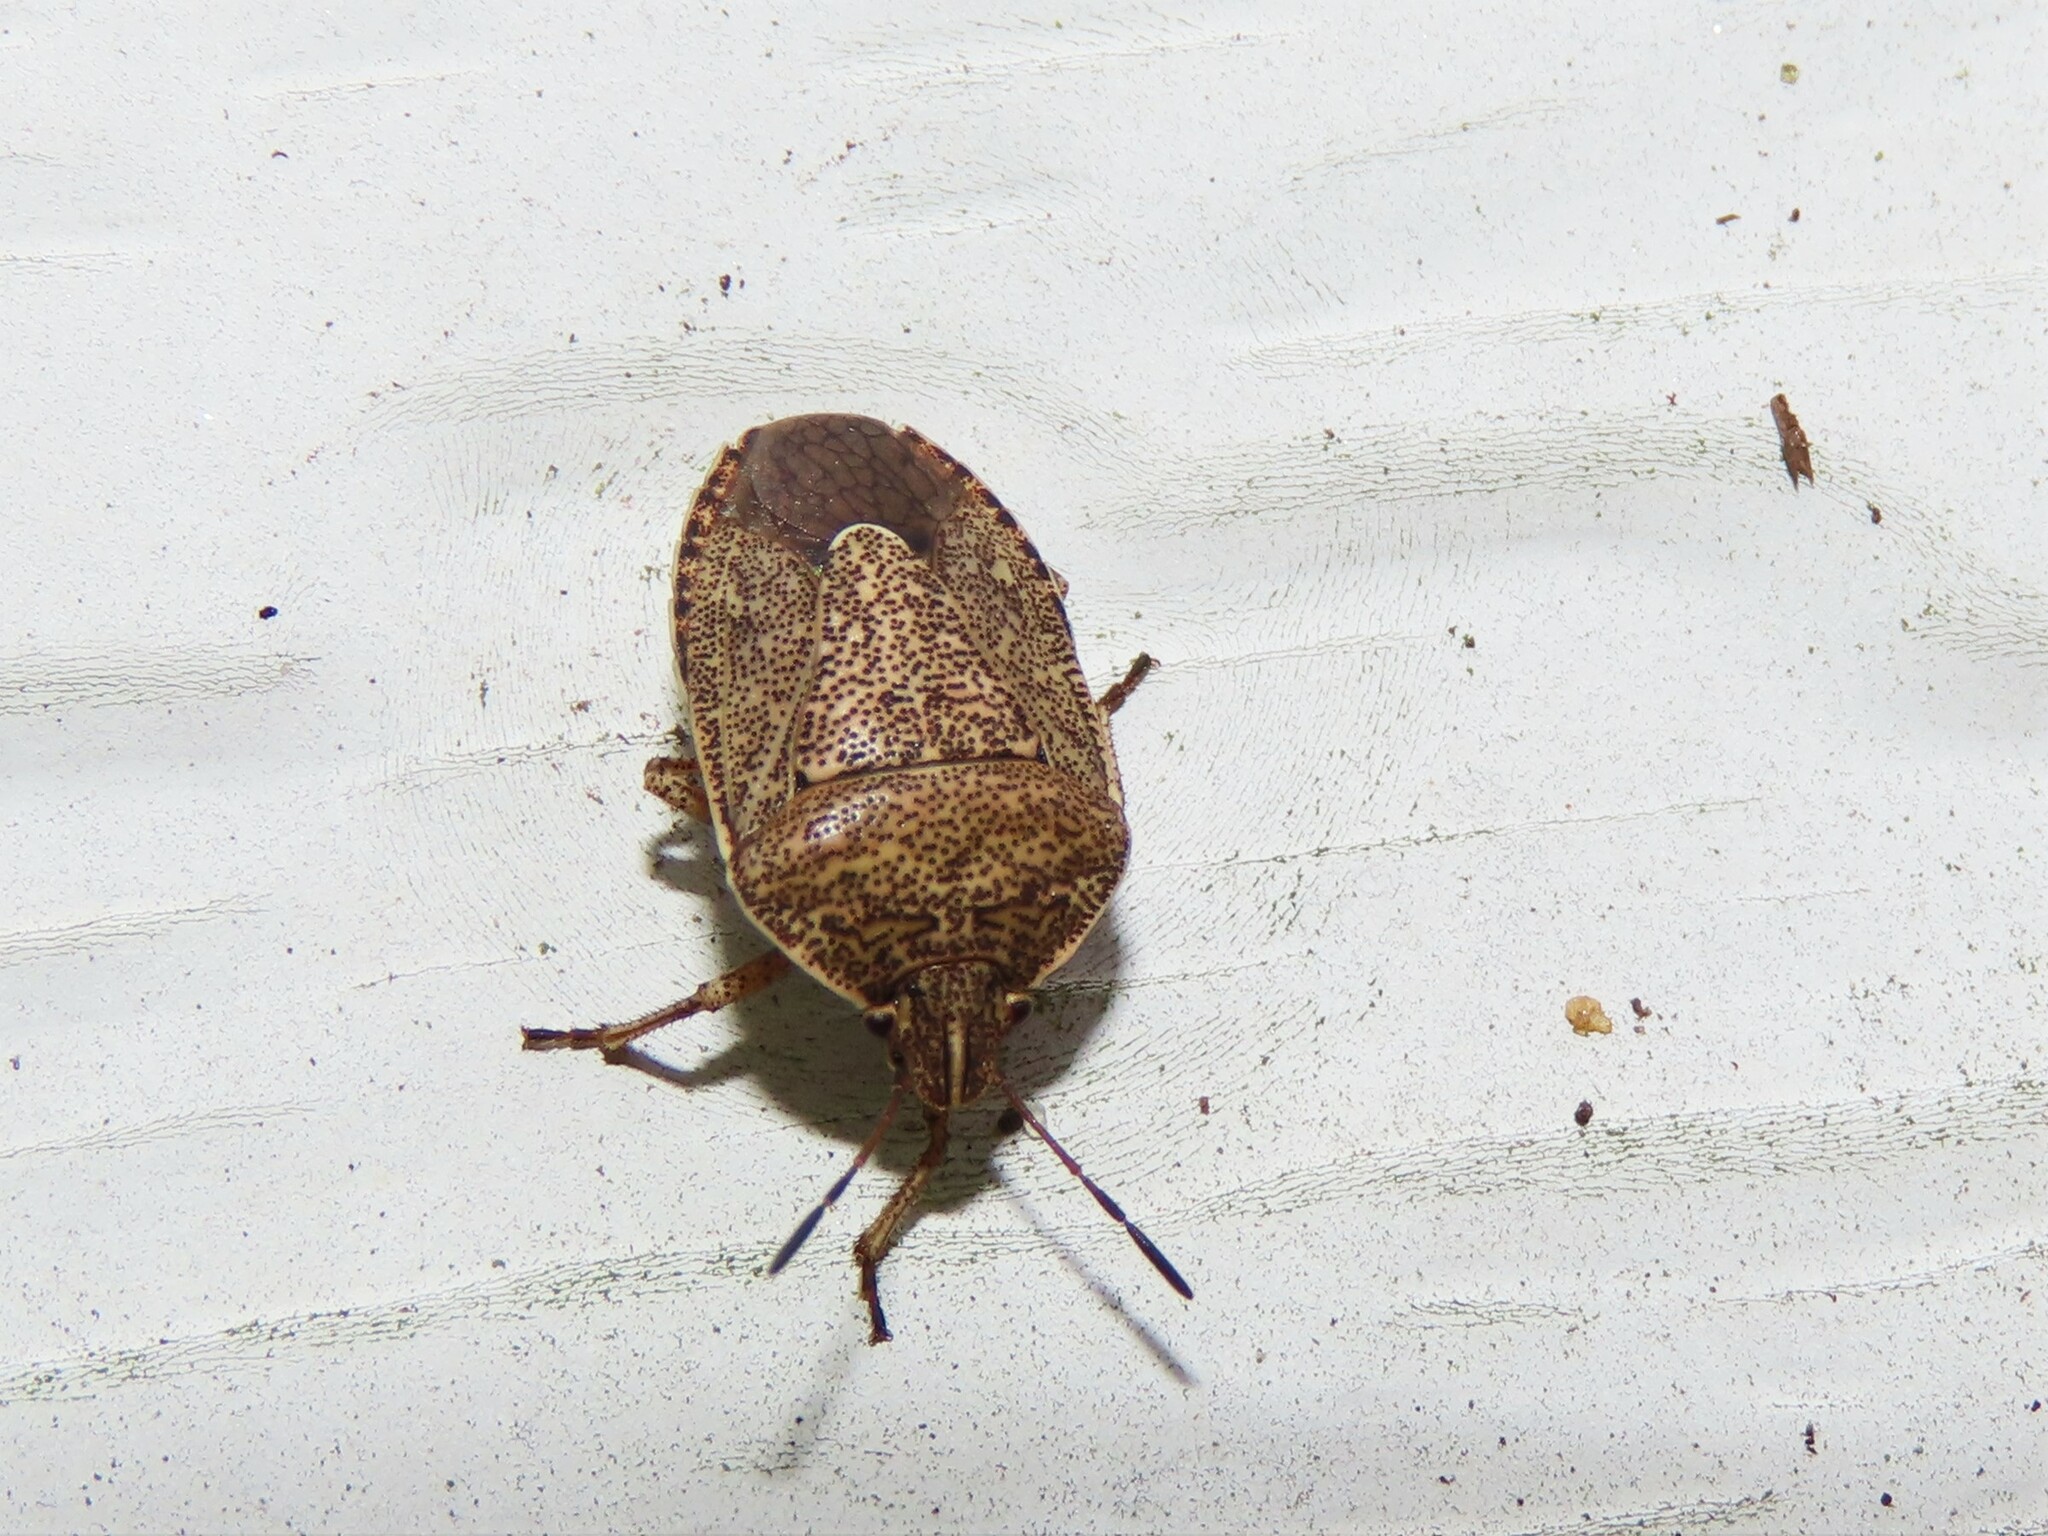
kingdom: Animalia
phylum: Arthropoda
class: Insecta
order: Hemiptera
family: Pentatomidae
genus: Hymenarcys
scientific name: Hymenarcys nervosa
